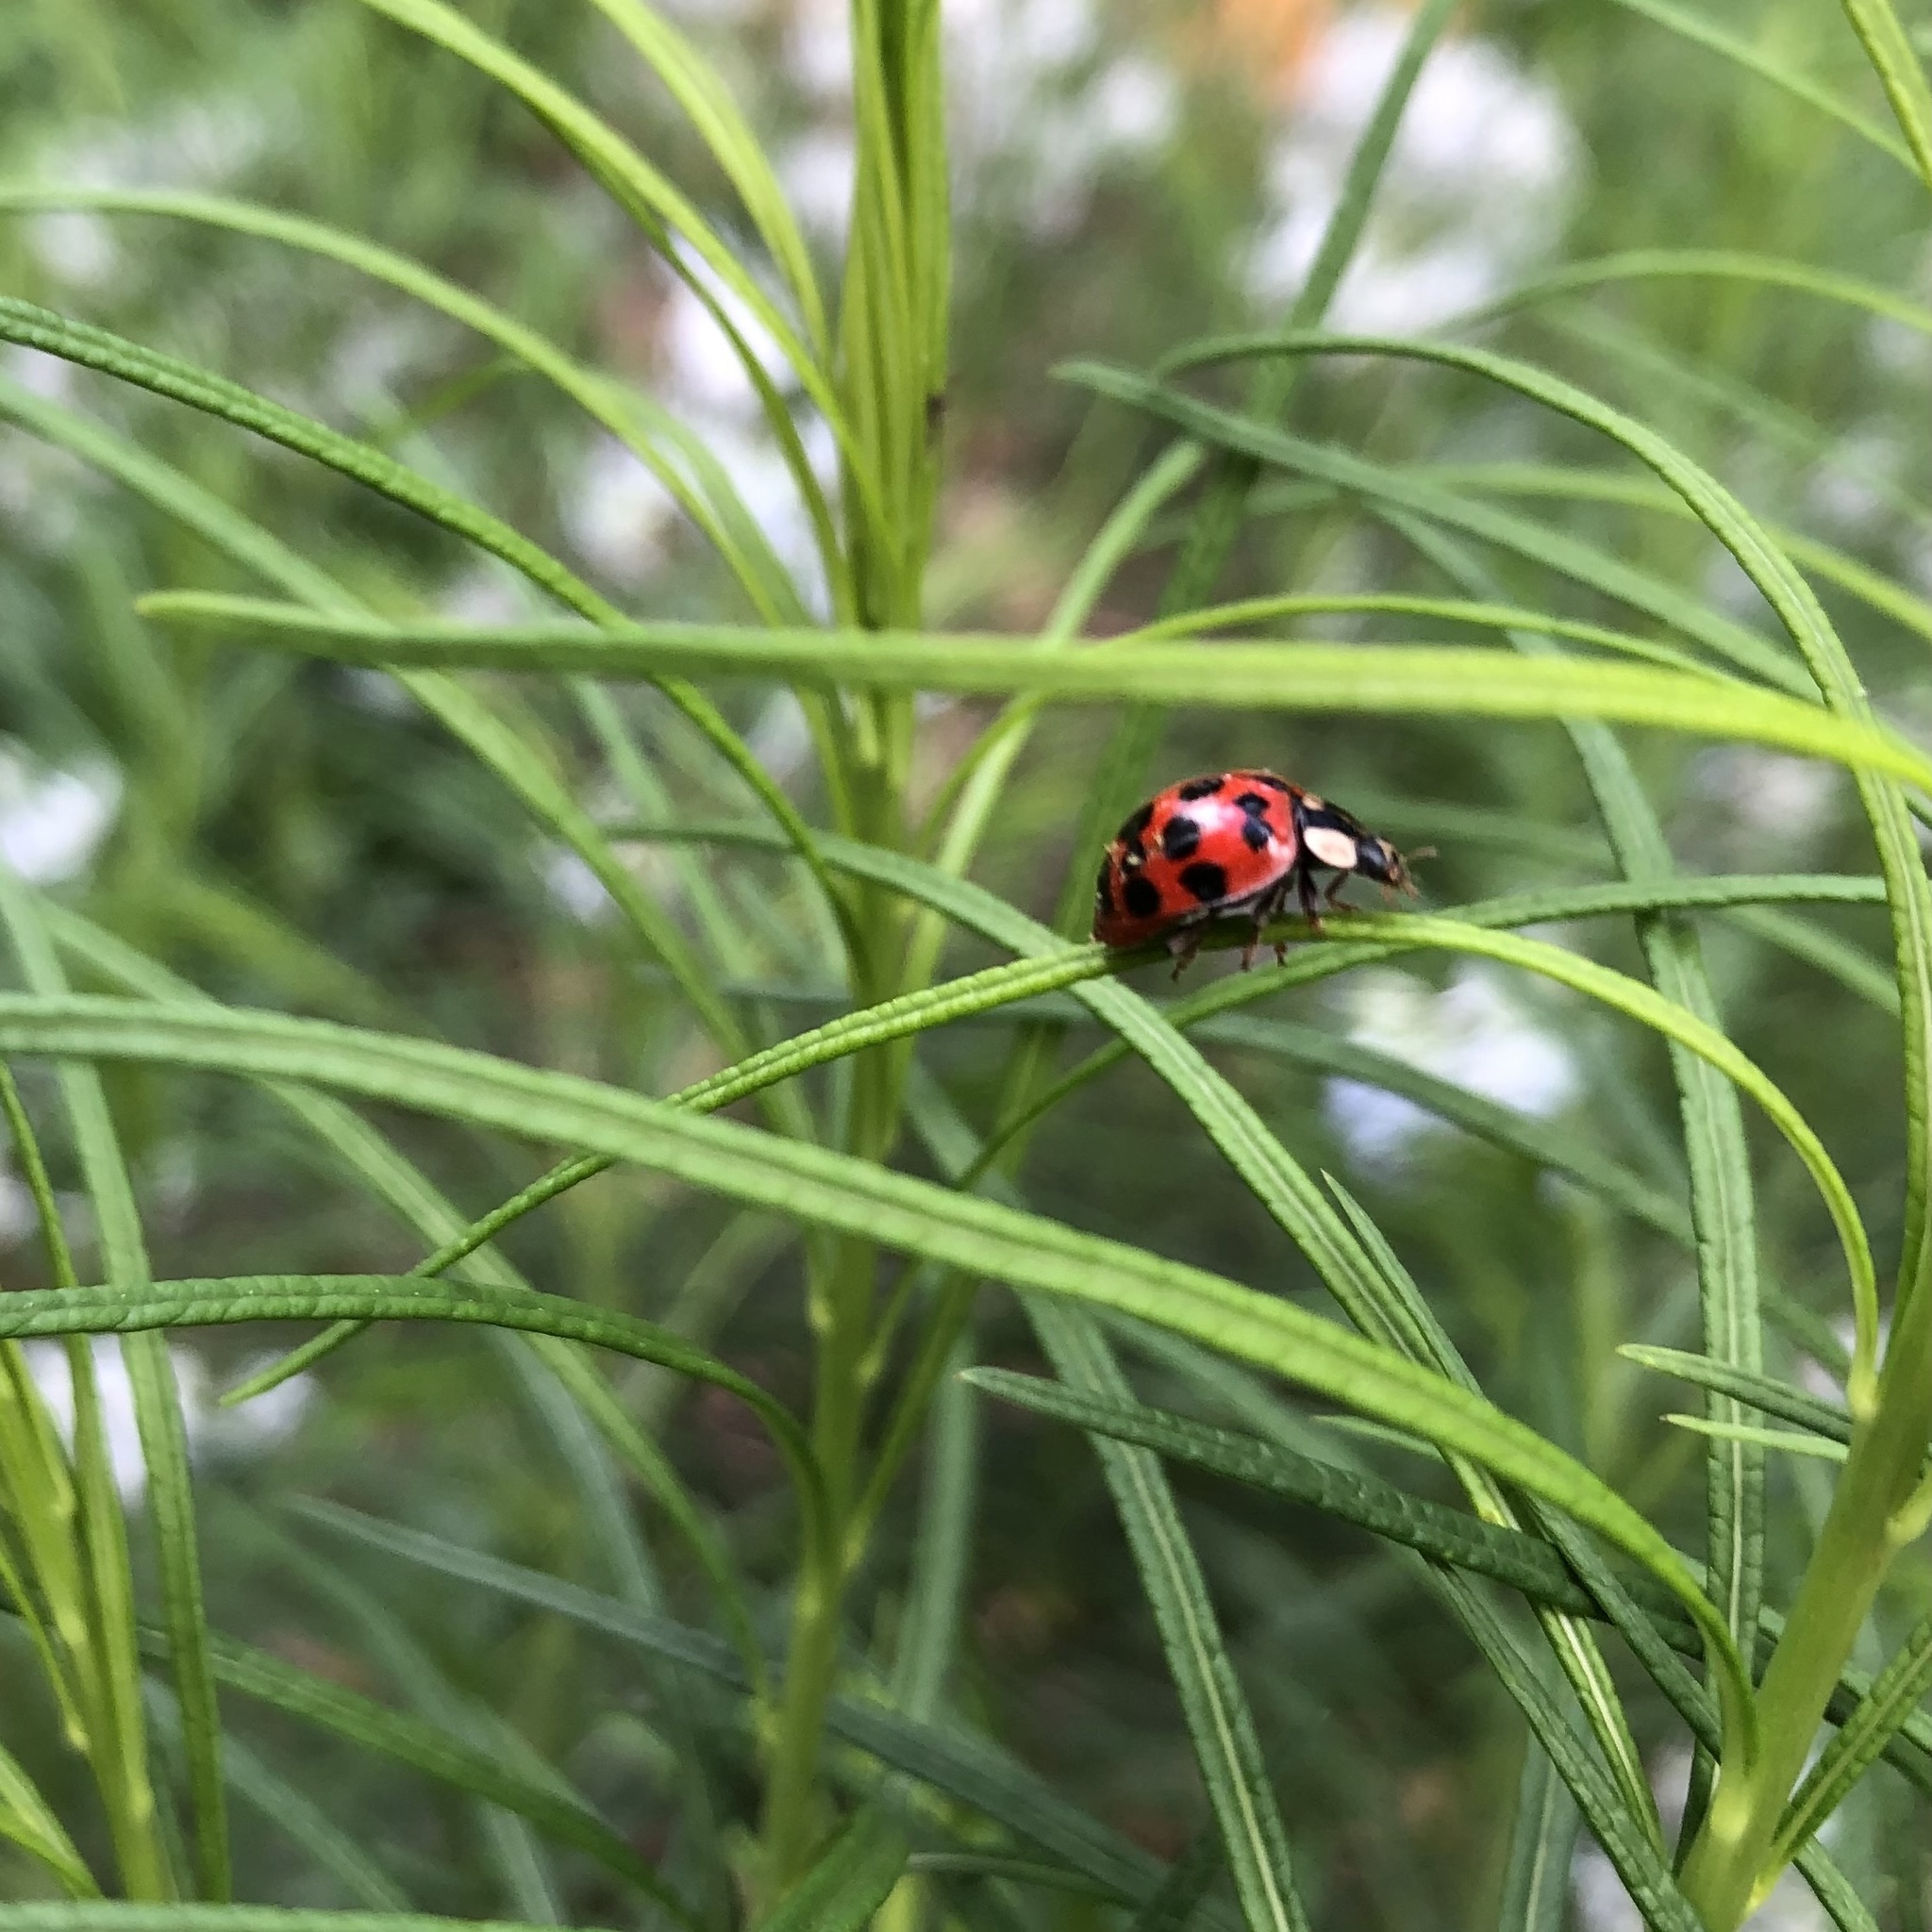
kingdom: Animalia
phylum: Arthropoda
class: Insecta
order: Coleoptera
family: Coccinellidae
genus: Harmonia
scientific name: Harmonia axyridis
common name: Harlequin ladybird
